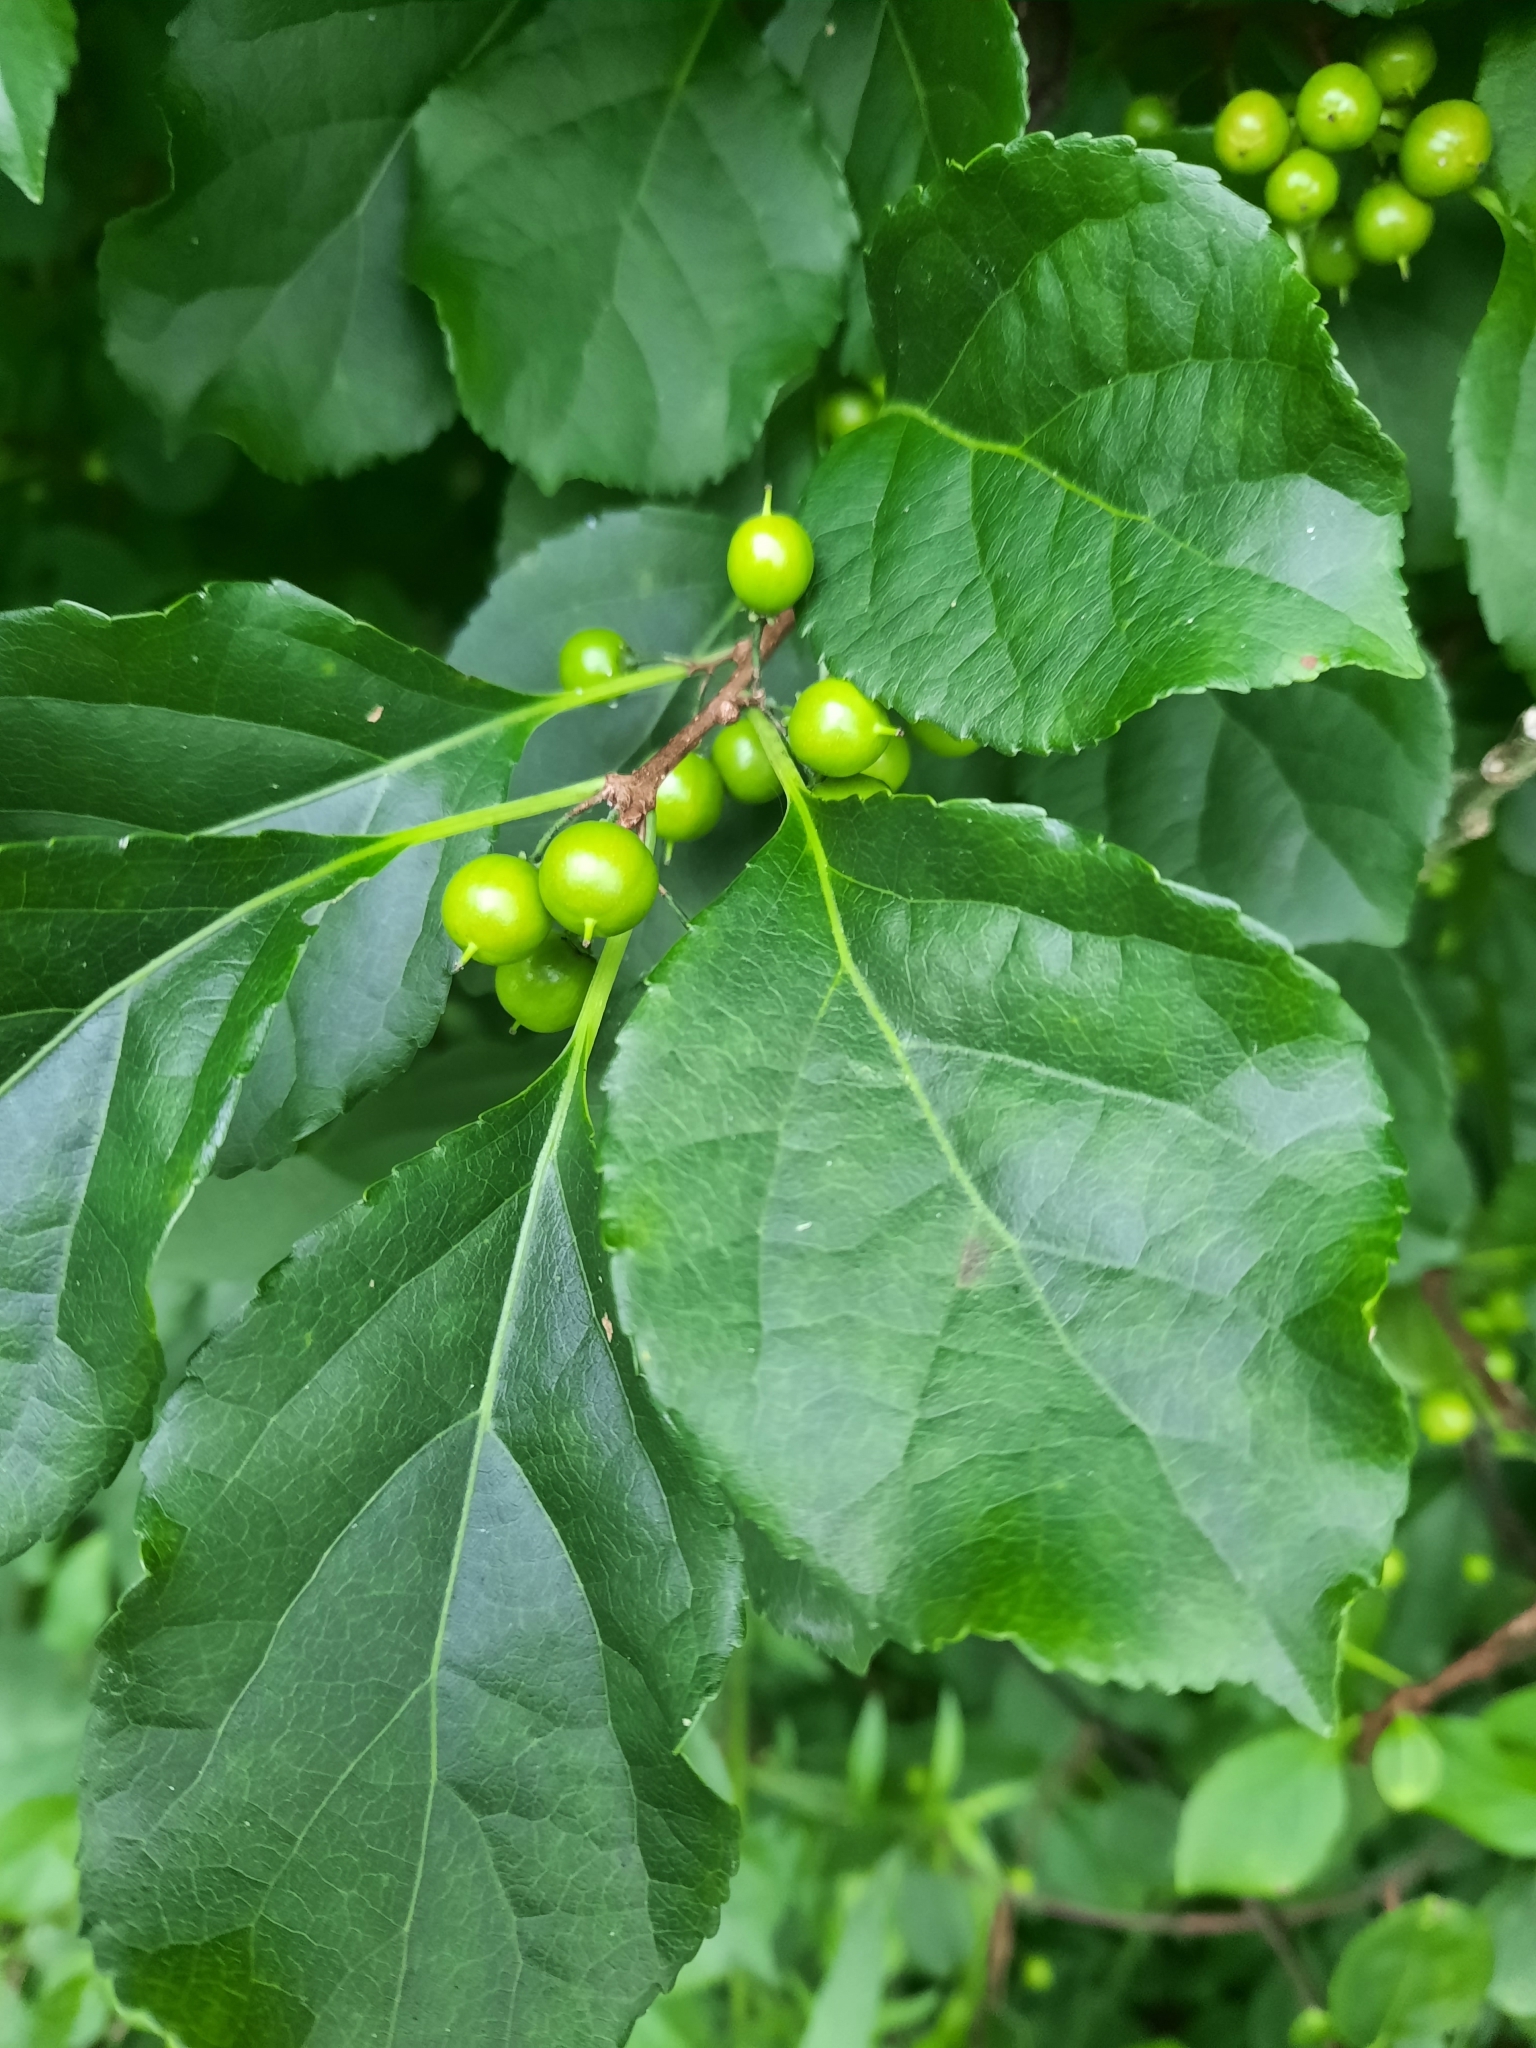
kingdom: Plantae
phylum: Tracheophyta
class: Magnoliopsida
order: Celastrales
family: Celastraceae
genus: Celastrus
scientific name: Celastrus orbiculatus
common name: Oriental bittersweet
